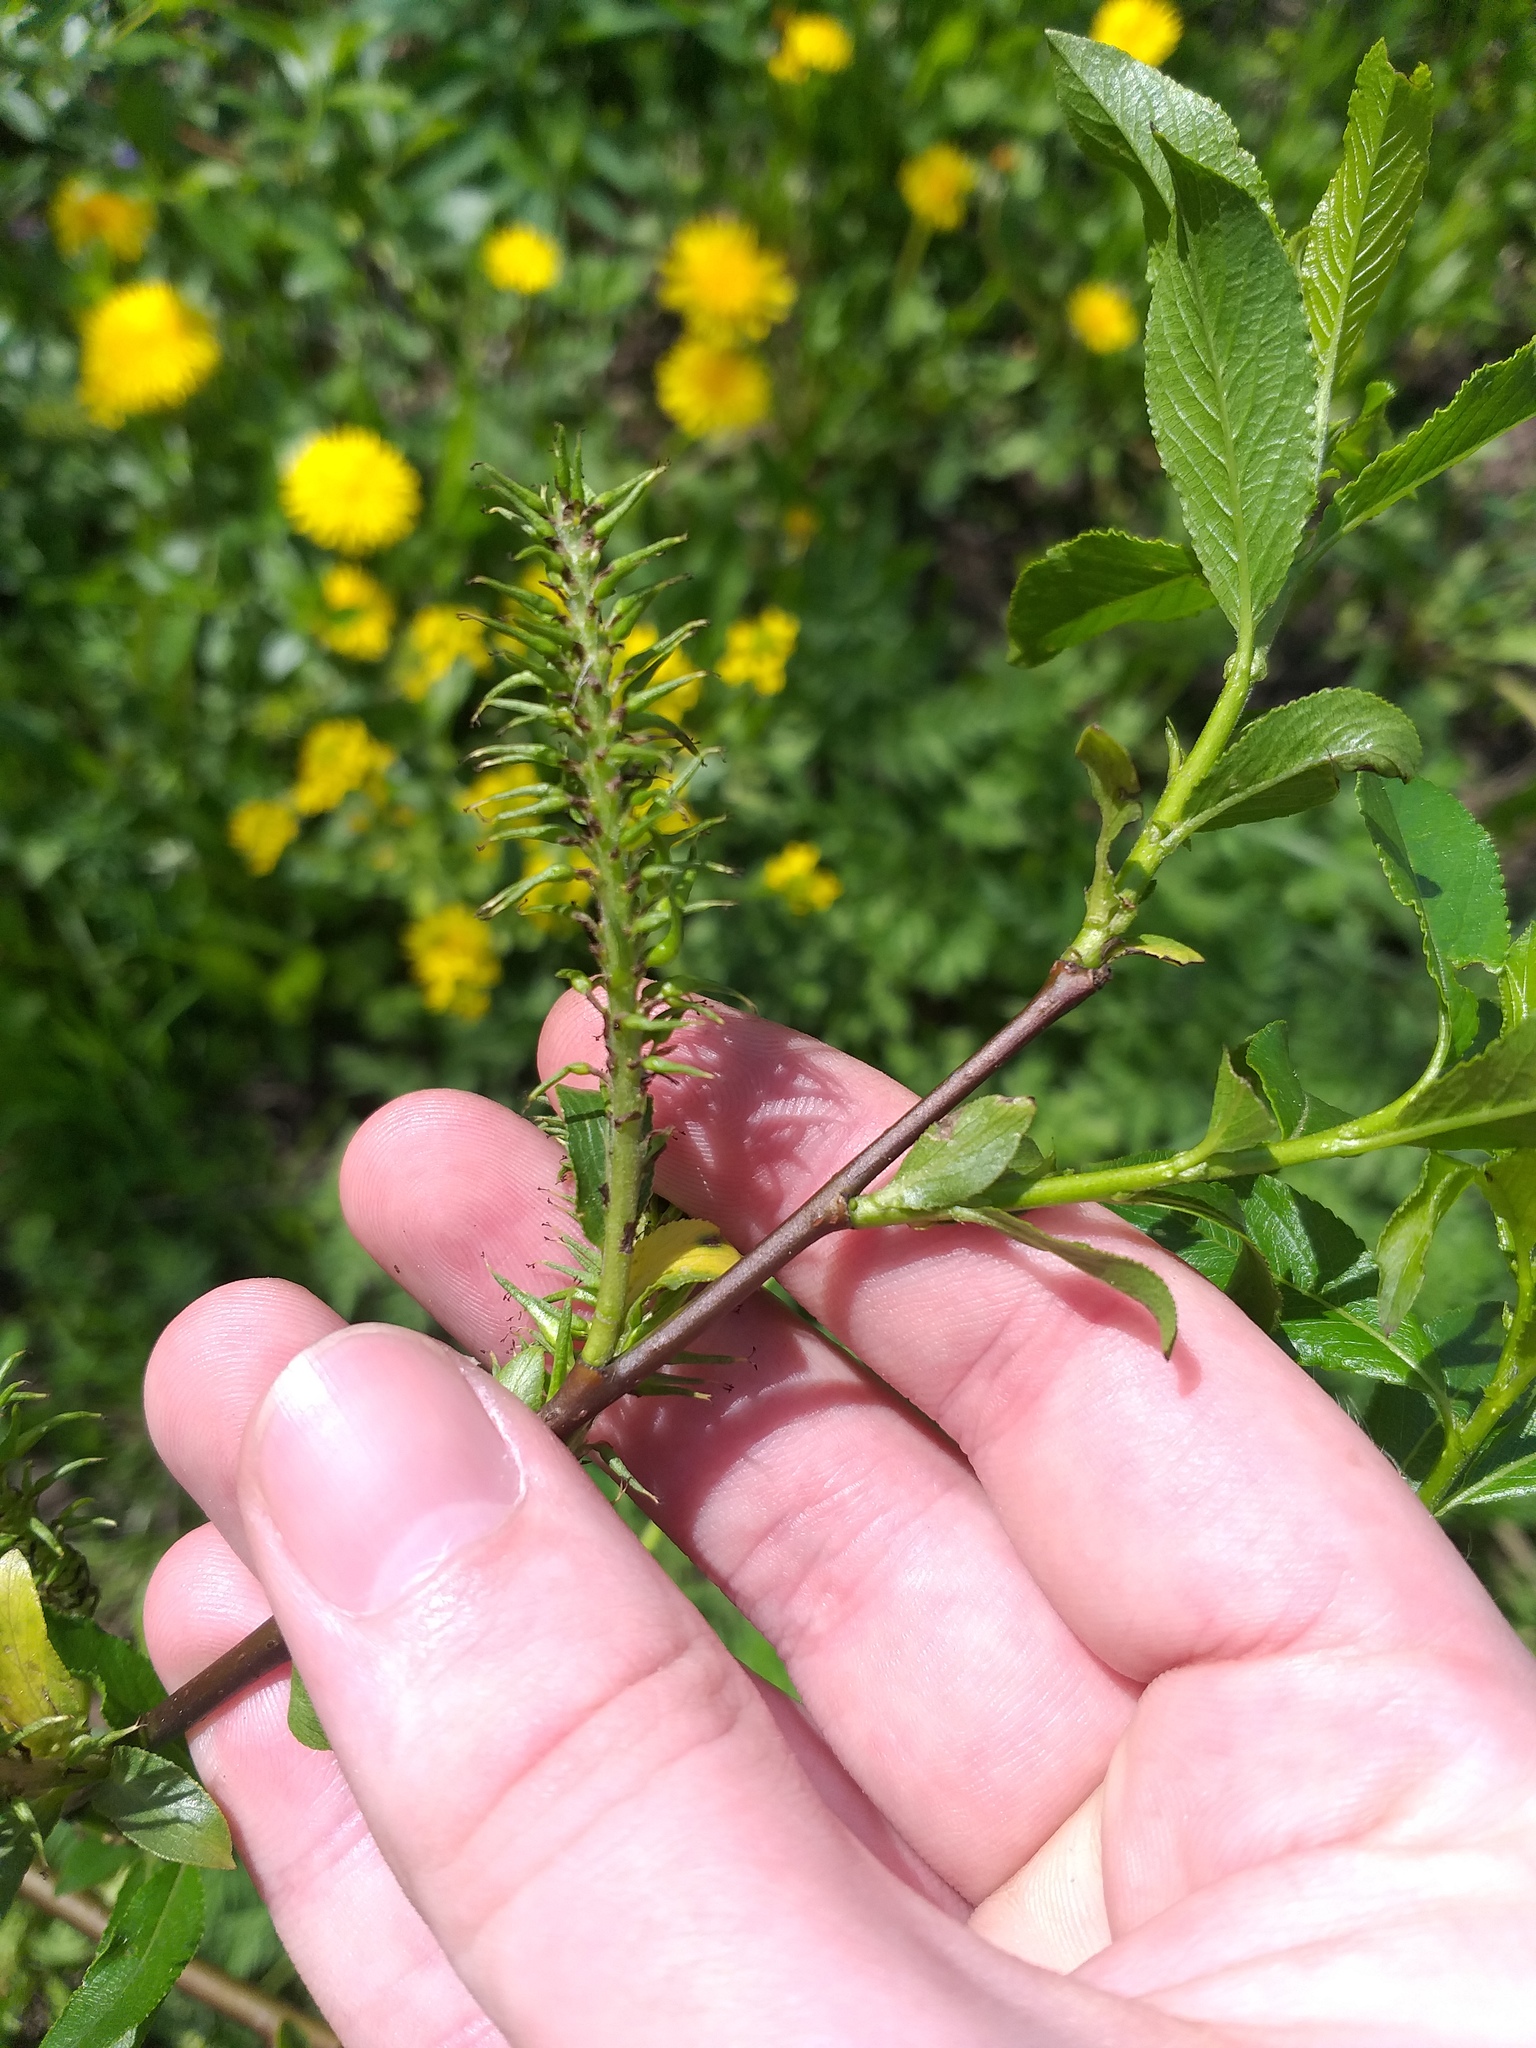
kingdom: Plantae
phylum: Tracheophyta
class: Magnoliopsida
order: Malpighiales
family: Salicaceae
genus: Salix
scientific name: Salix myrsinifolia
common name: Dark-leaved willow
